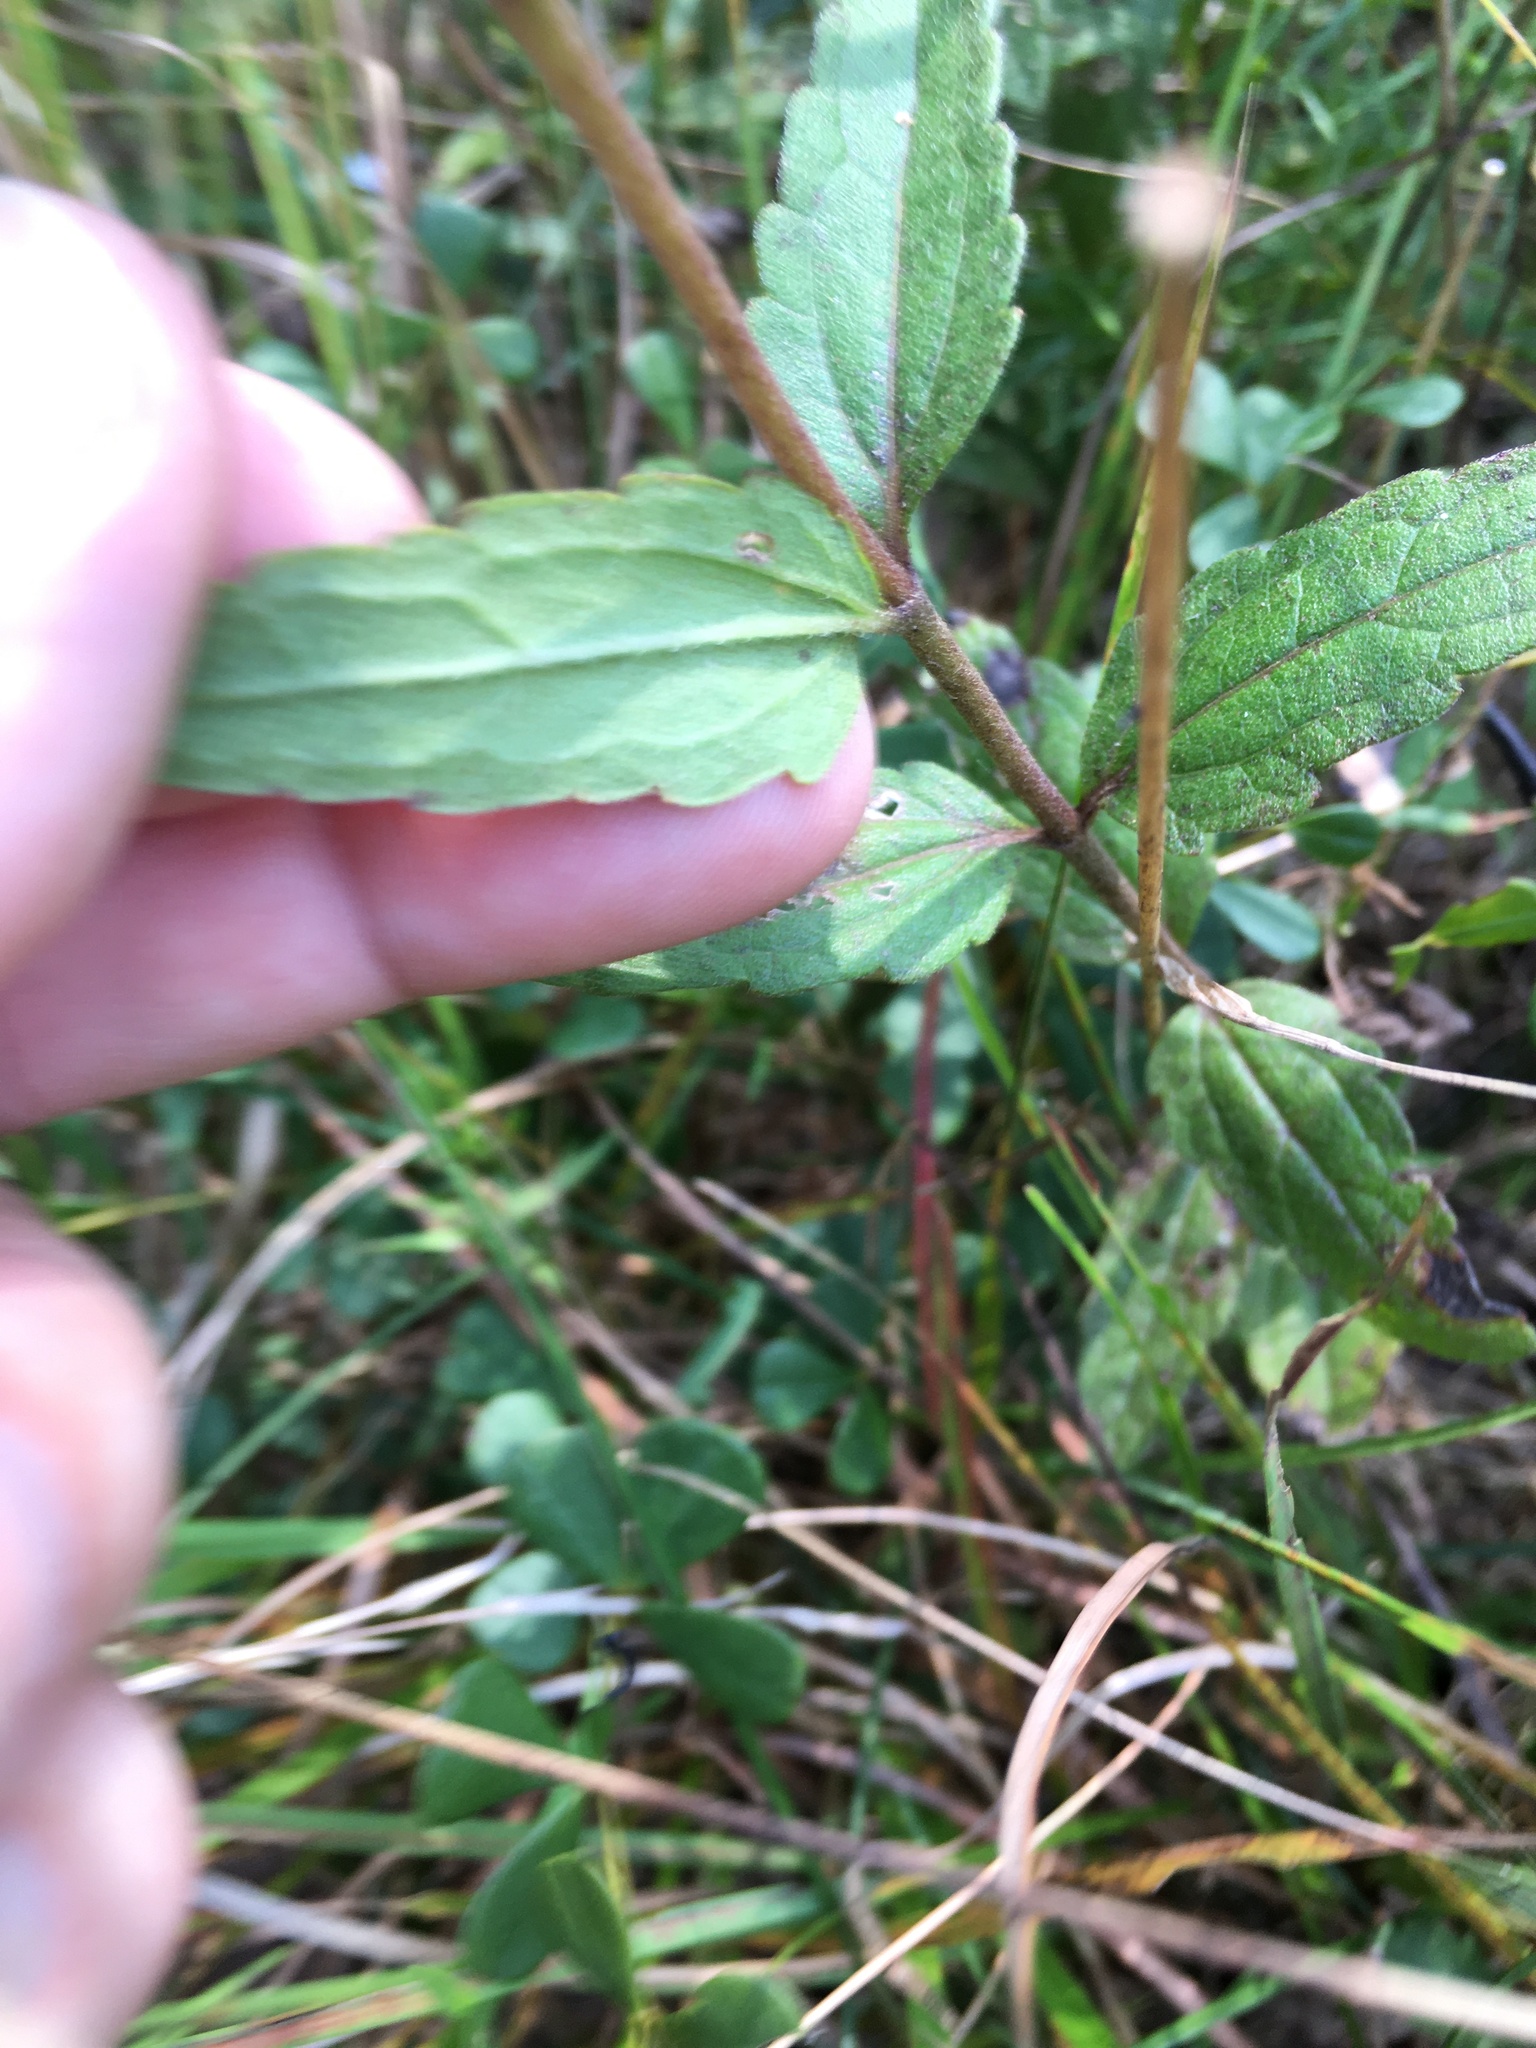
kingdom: Plantae
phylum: Tracheophyta
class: Magnoliopsida
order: Asterales
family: Asteraceae
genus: Eupatorium
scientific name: Eupatorium pilosum
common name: Rough boneset
